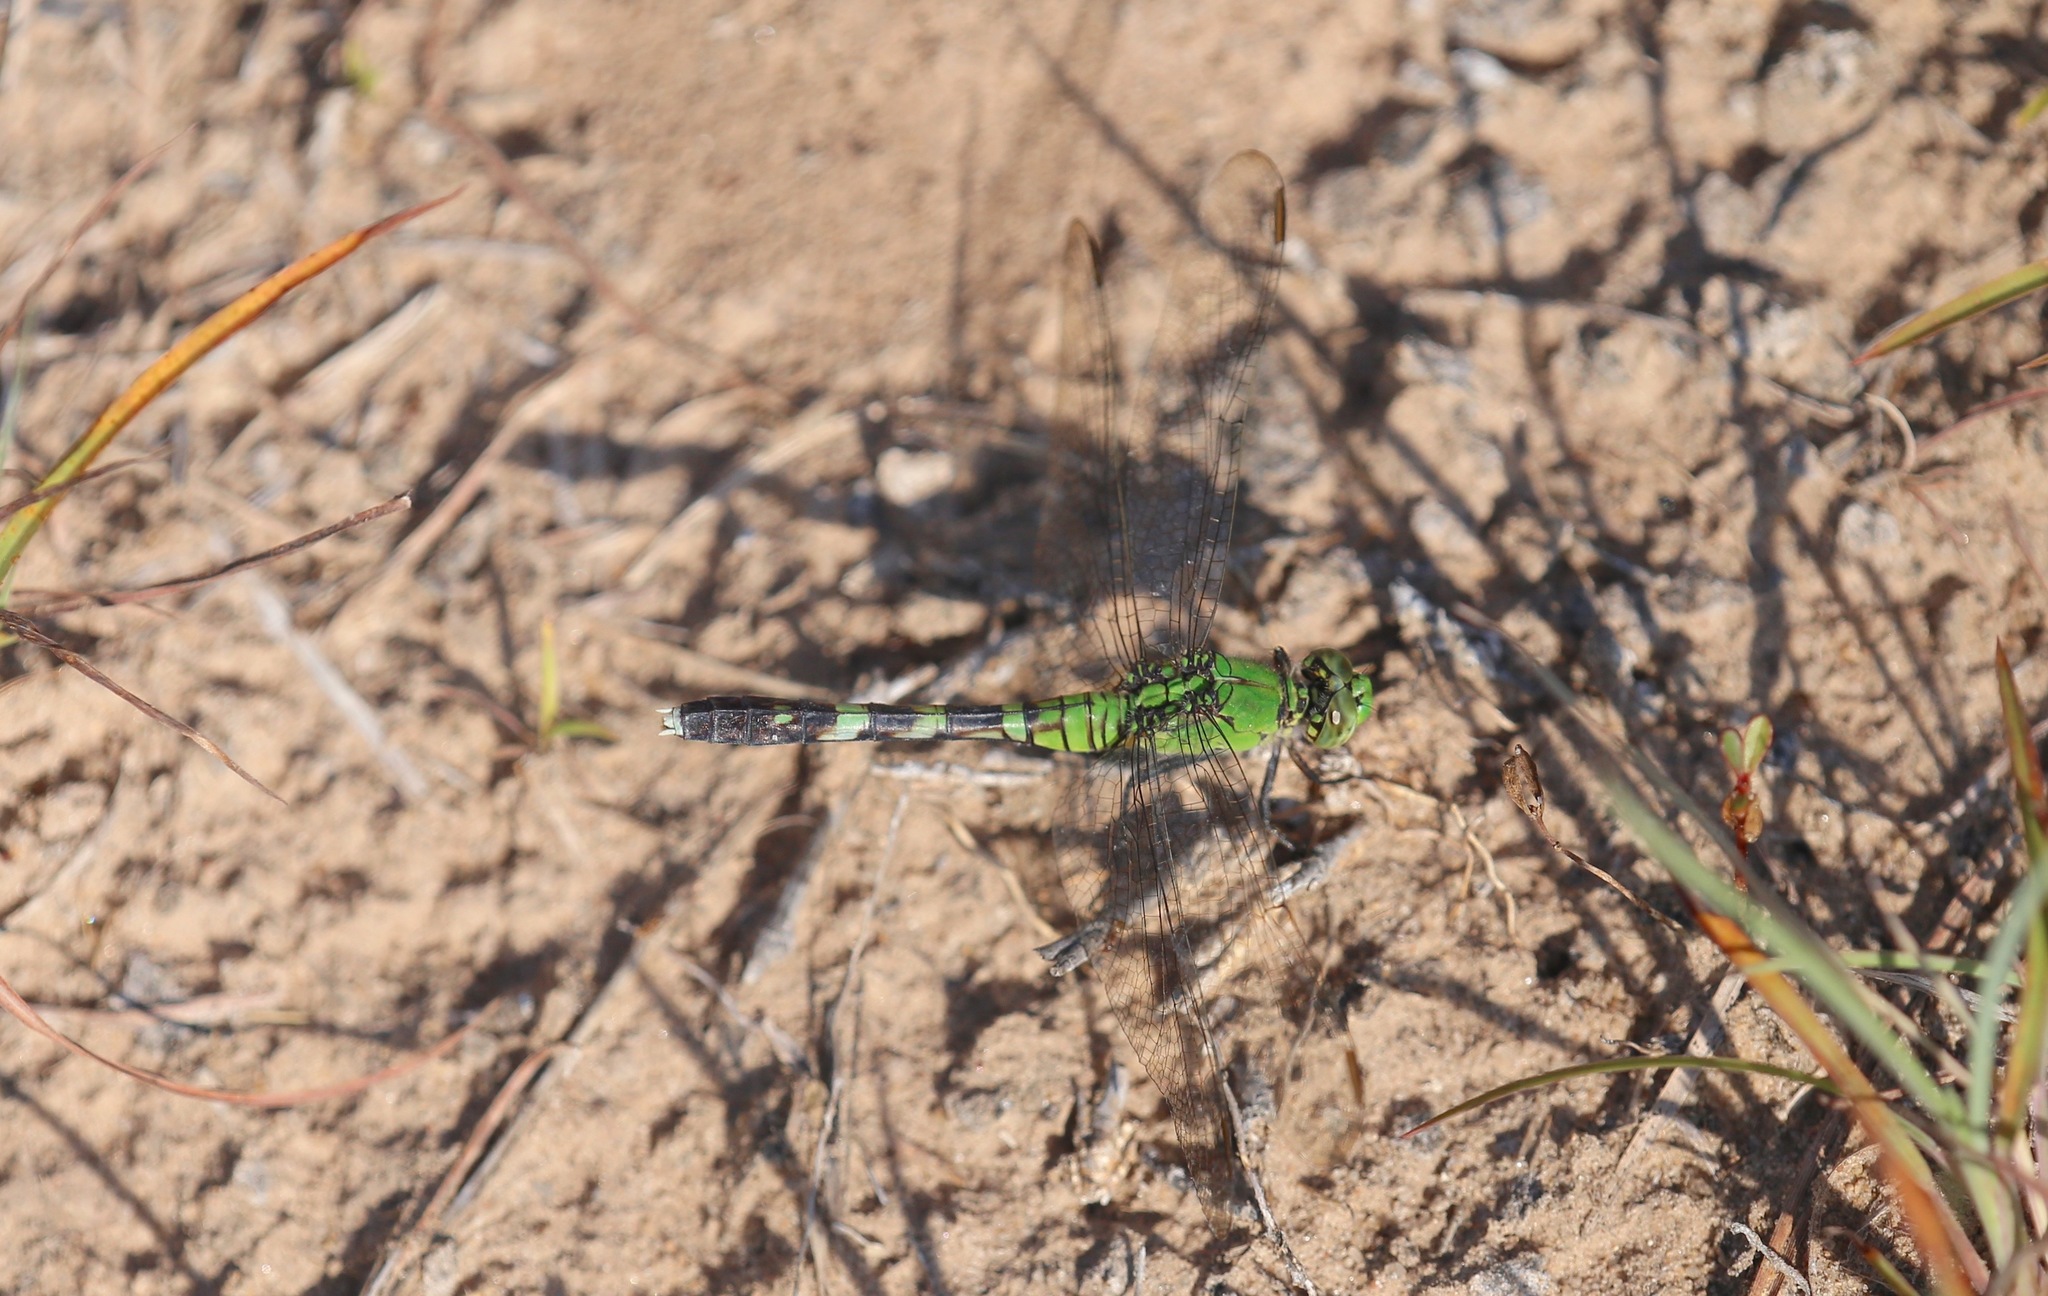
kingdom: Animalia
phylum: Arthropoda
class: Insecta
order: Odonata
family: Libellulidae
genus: Erythemis
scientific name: Erythemis simplicicollis
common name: Eastern pondhawk
